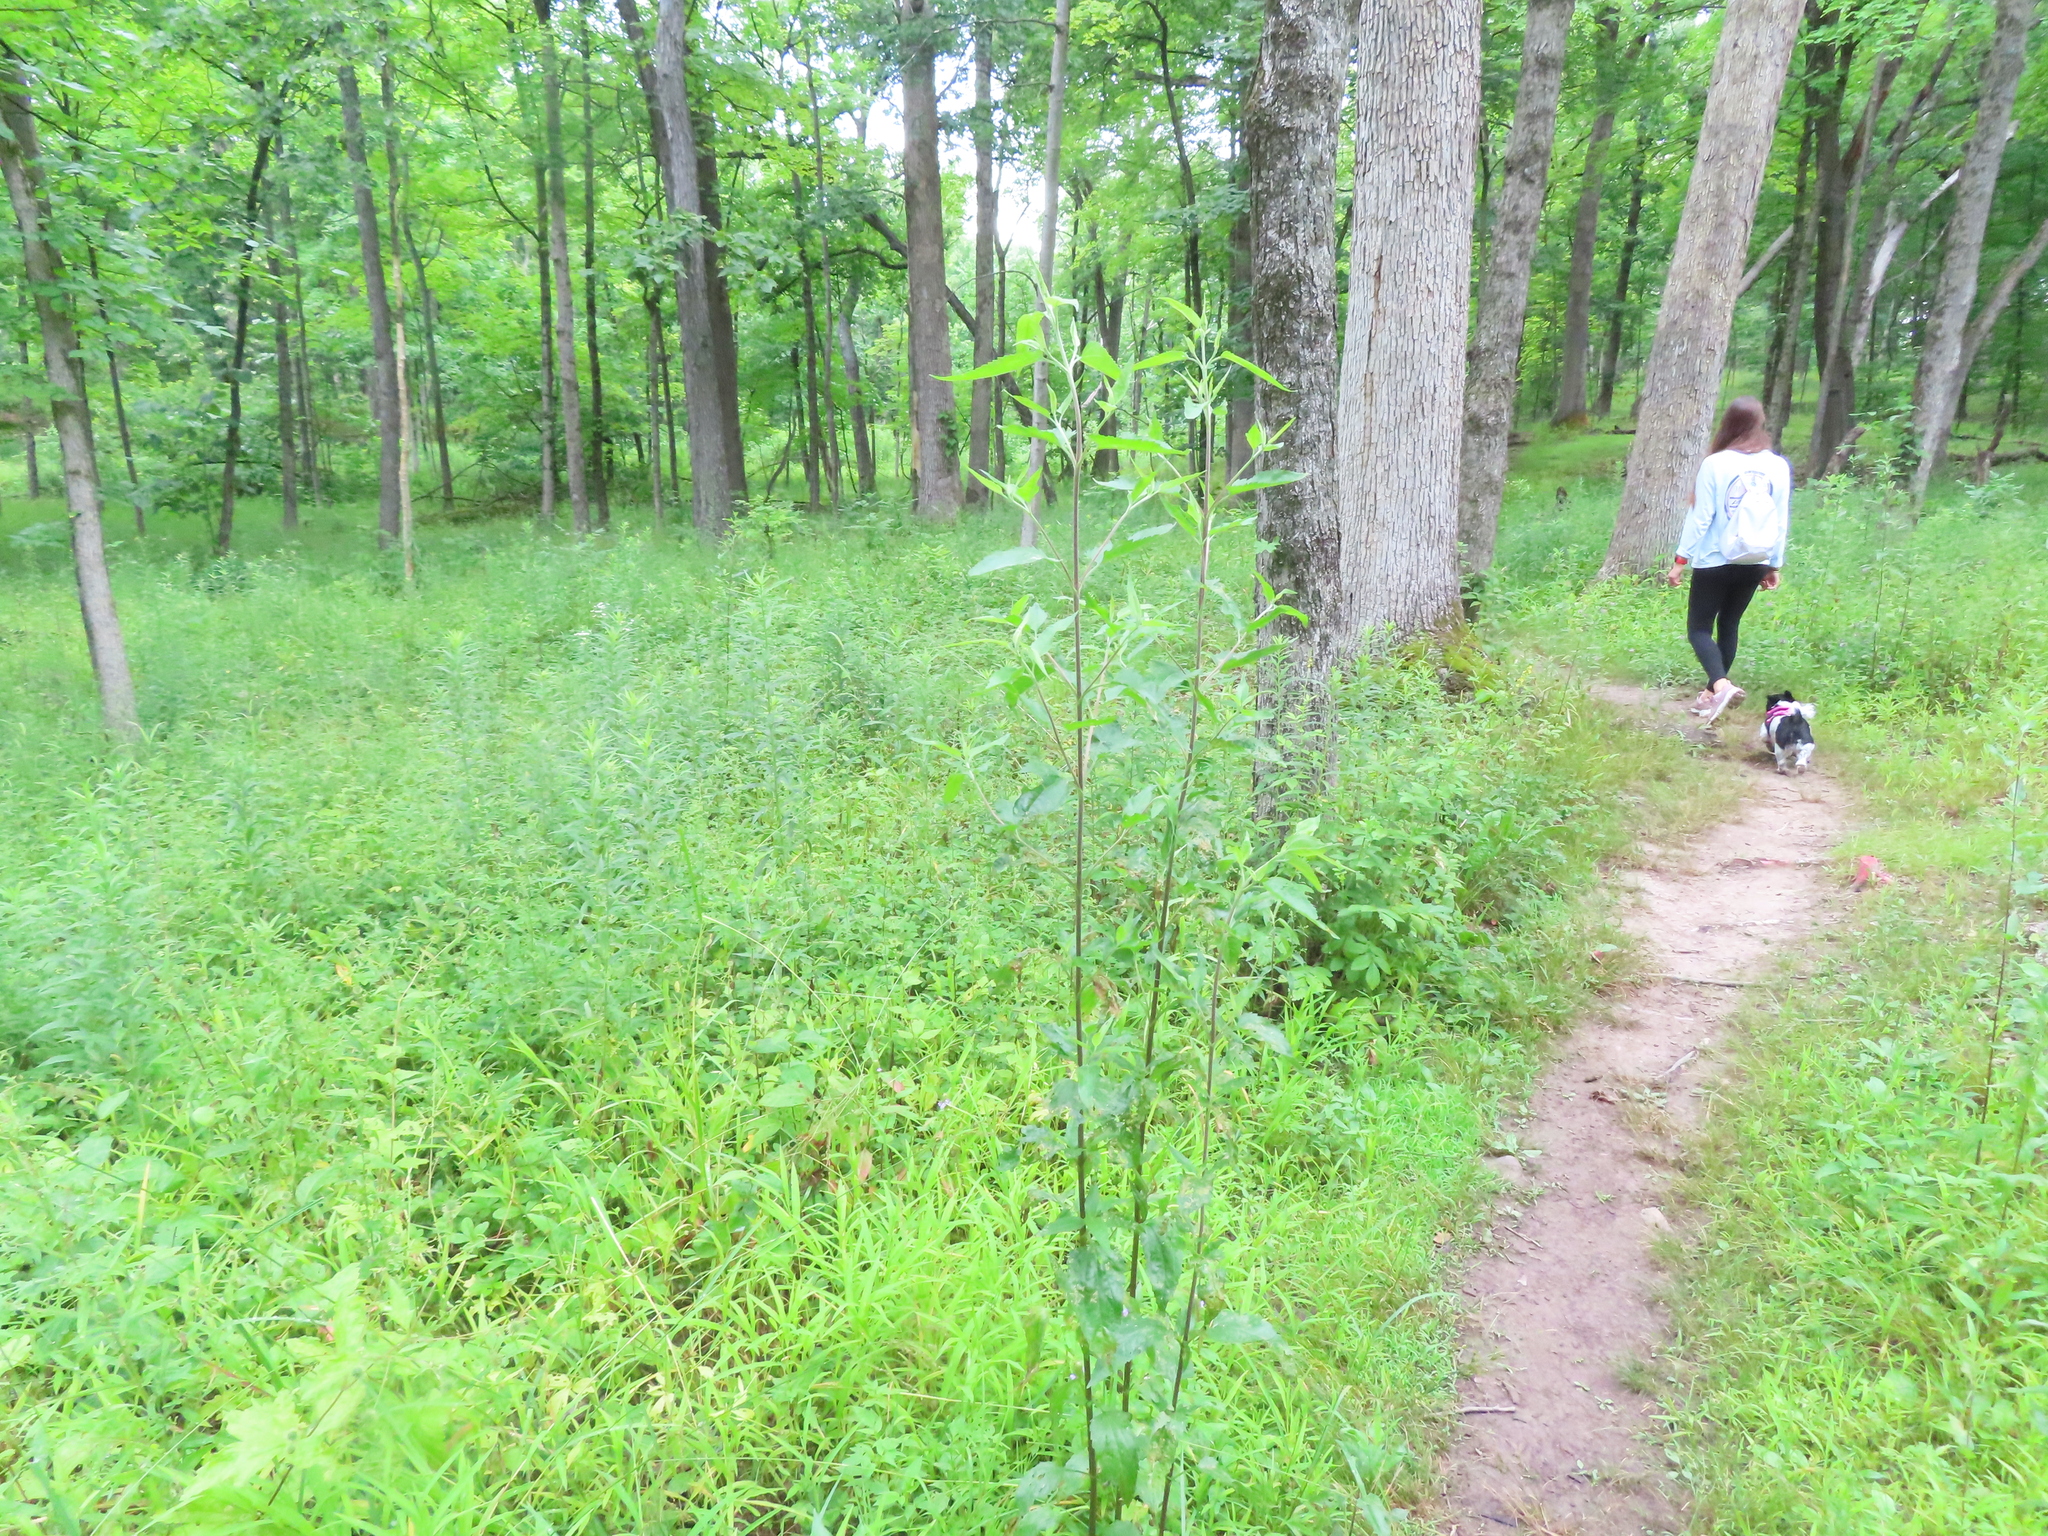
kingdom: Plantae
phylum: Tracheophyta
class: Magnoliopsida
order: Asterales
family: Asteraceae
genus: Eupatorium
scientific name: Eupatorium serotinum
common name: Late boneset
